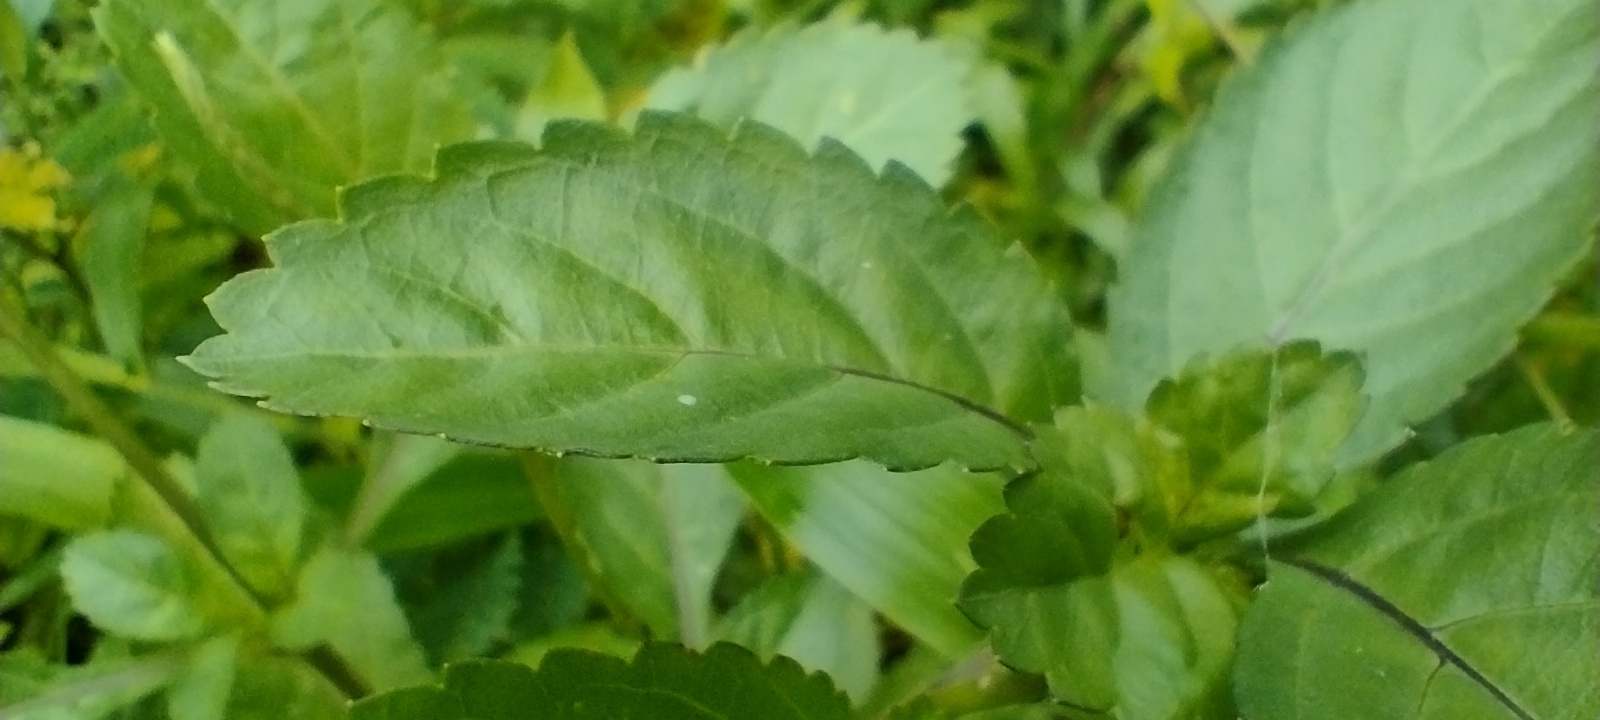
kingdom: Plantae
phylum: Tracheophyta
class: Magnoliopsida
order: Lamiales
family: Verbenaceae
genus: Stachytarpheta
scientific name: Stachytarpheta jamaicensis
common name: Light-blue snakeweed
